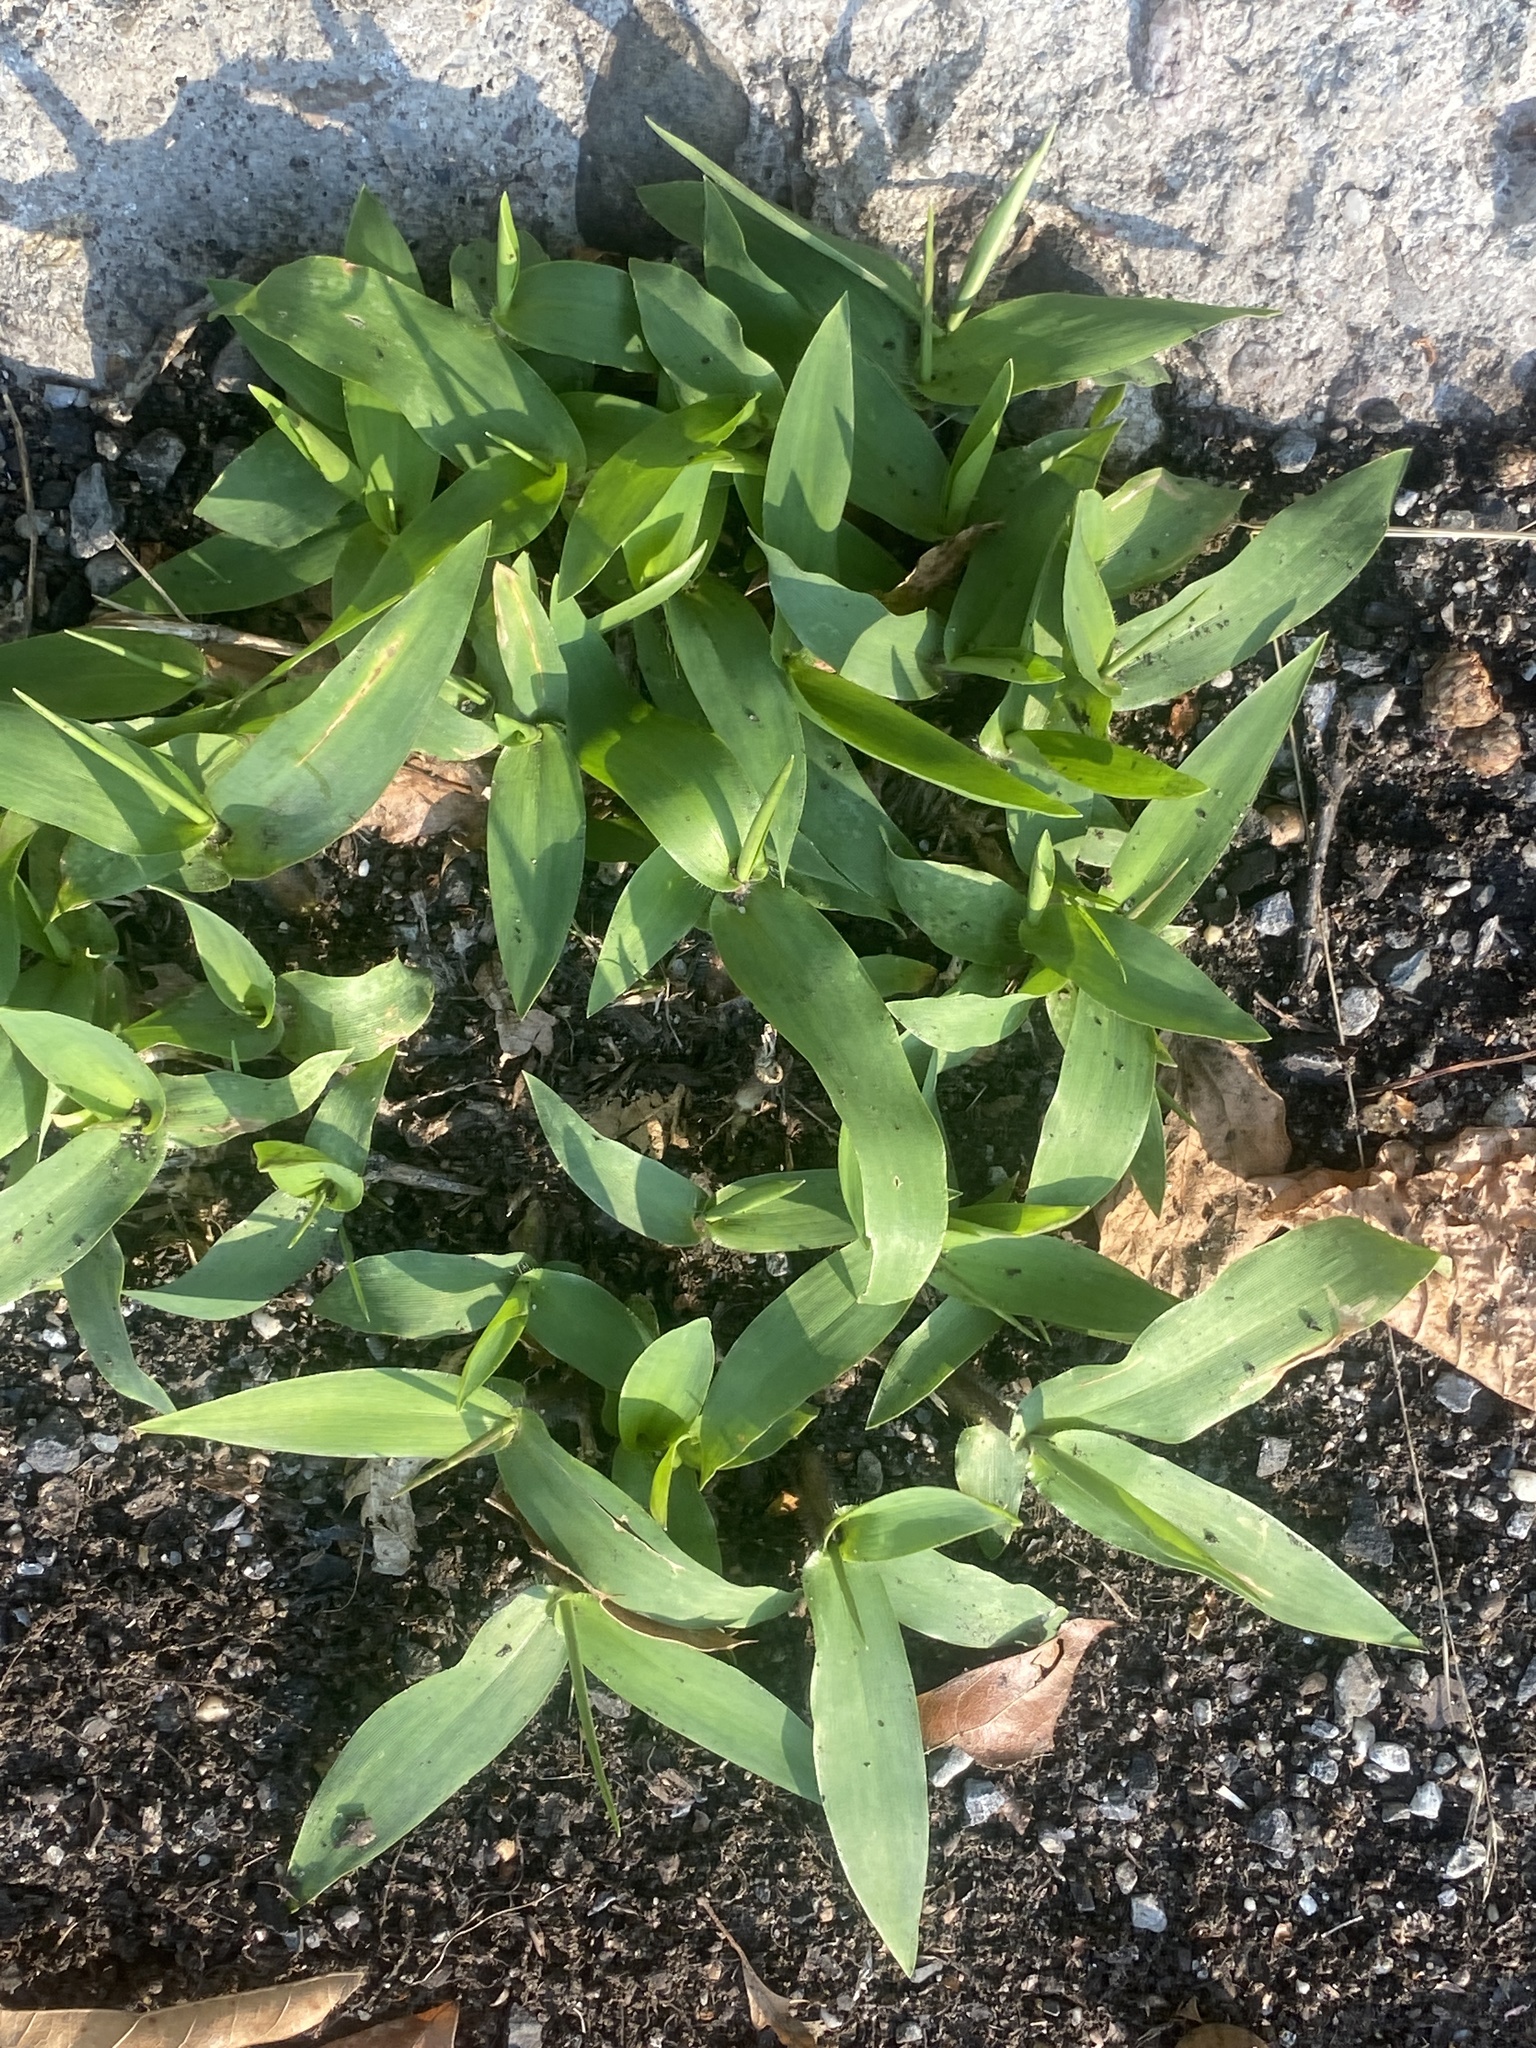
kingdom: Plantae
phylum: Tracheophyta
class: Liliopsida
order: Poales
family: Poaceae
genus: Dichanthelium
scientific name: Dichanthelium clandestinum
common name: Deer-tongue grass
